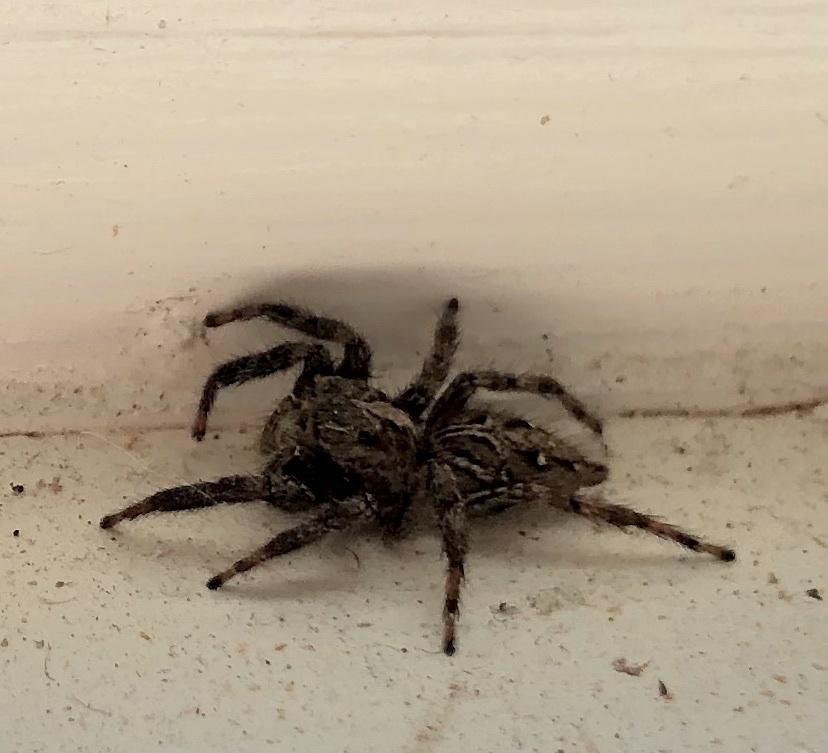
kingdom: Animalia
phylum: Arthropoda
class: Arachnida
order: Araneae
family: Salticidae
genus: Plexippus
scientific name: Plexippus paykulli
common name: Pantropical jumper
